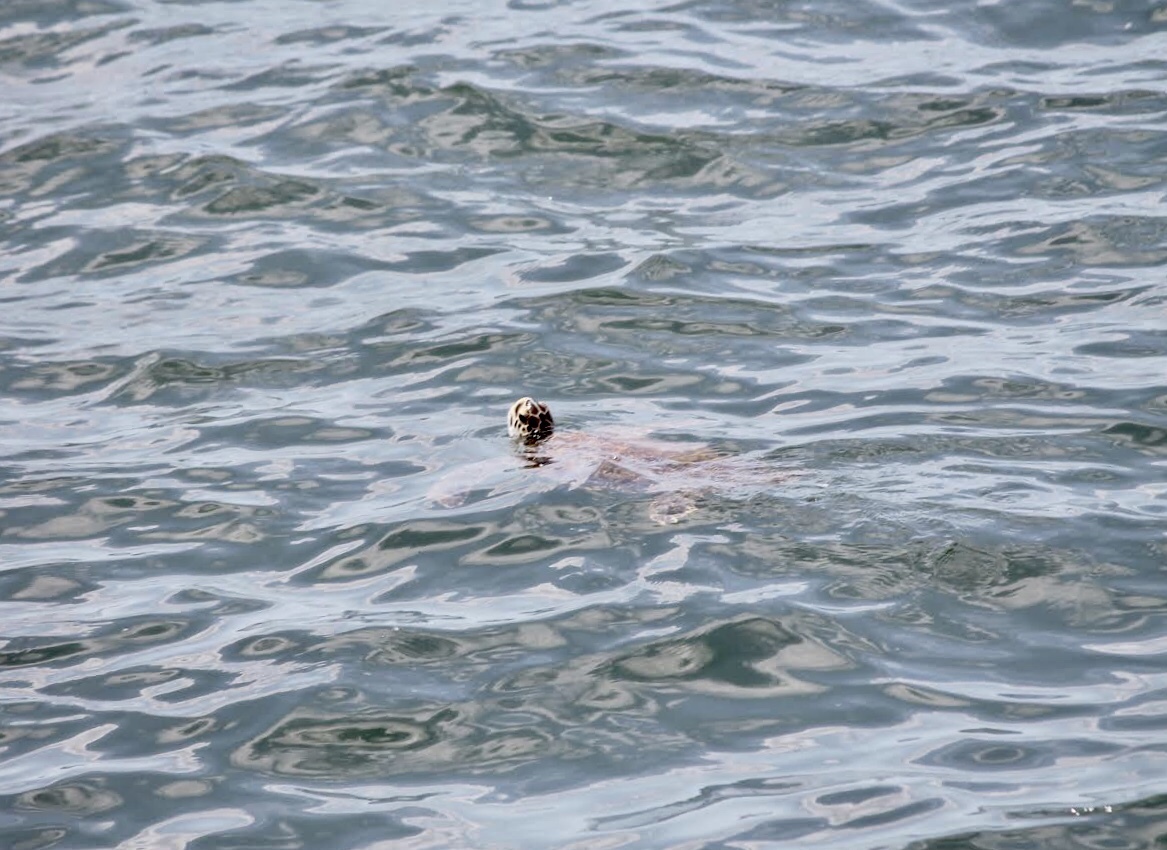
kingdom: Animalia
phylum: Chordata
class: Testudines
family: Cheloniidae
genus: Chelonia
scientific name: Chelonia mydas
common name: Green turtle
